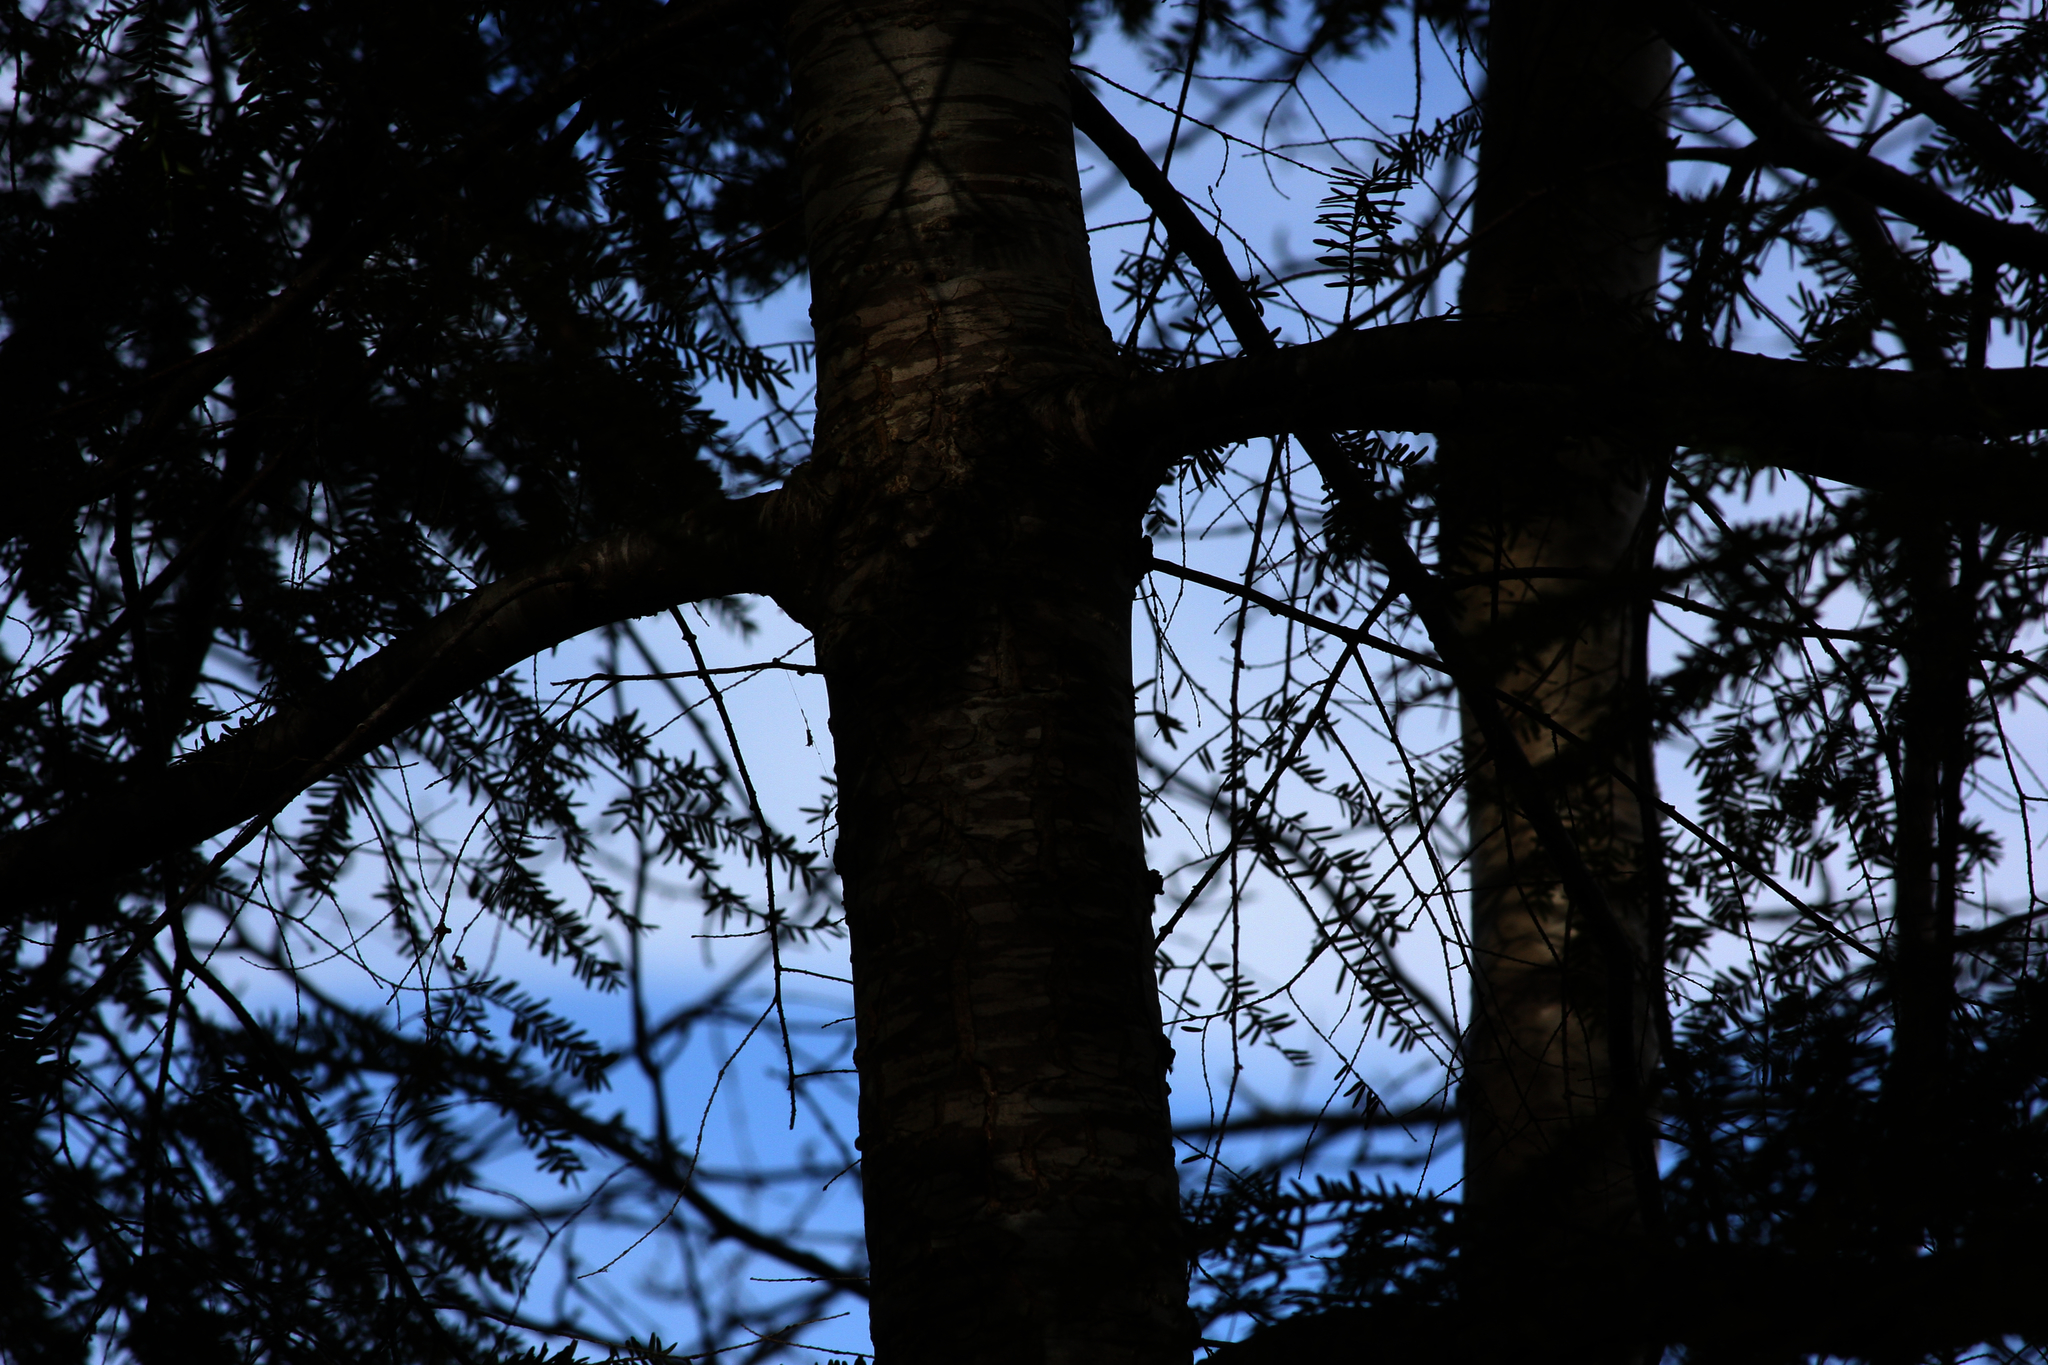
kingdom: Plantae
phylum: Tracheophyta
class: Pinopsida
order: Pinales
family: Pinaceae
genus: Tsuga
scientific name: Tsuga canadensis
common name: Eastern hemlock
